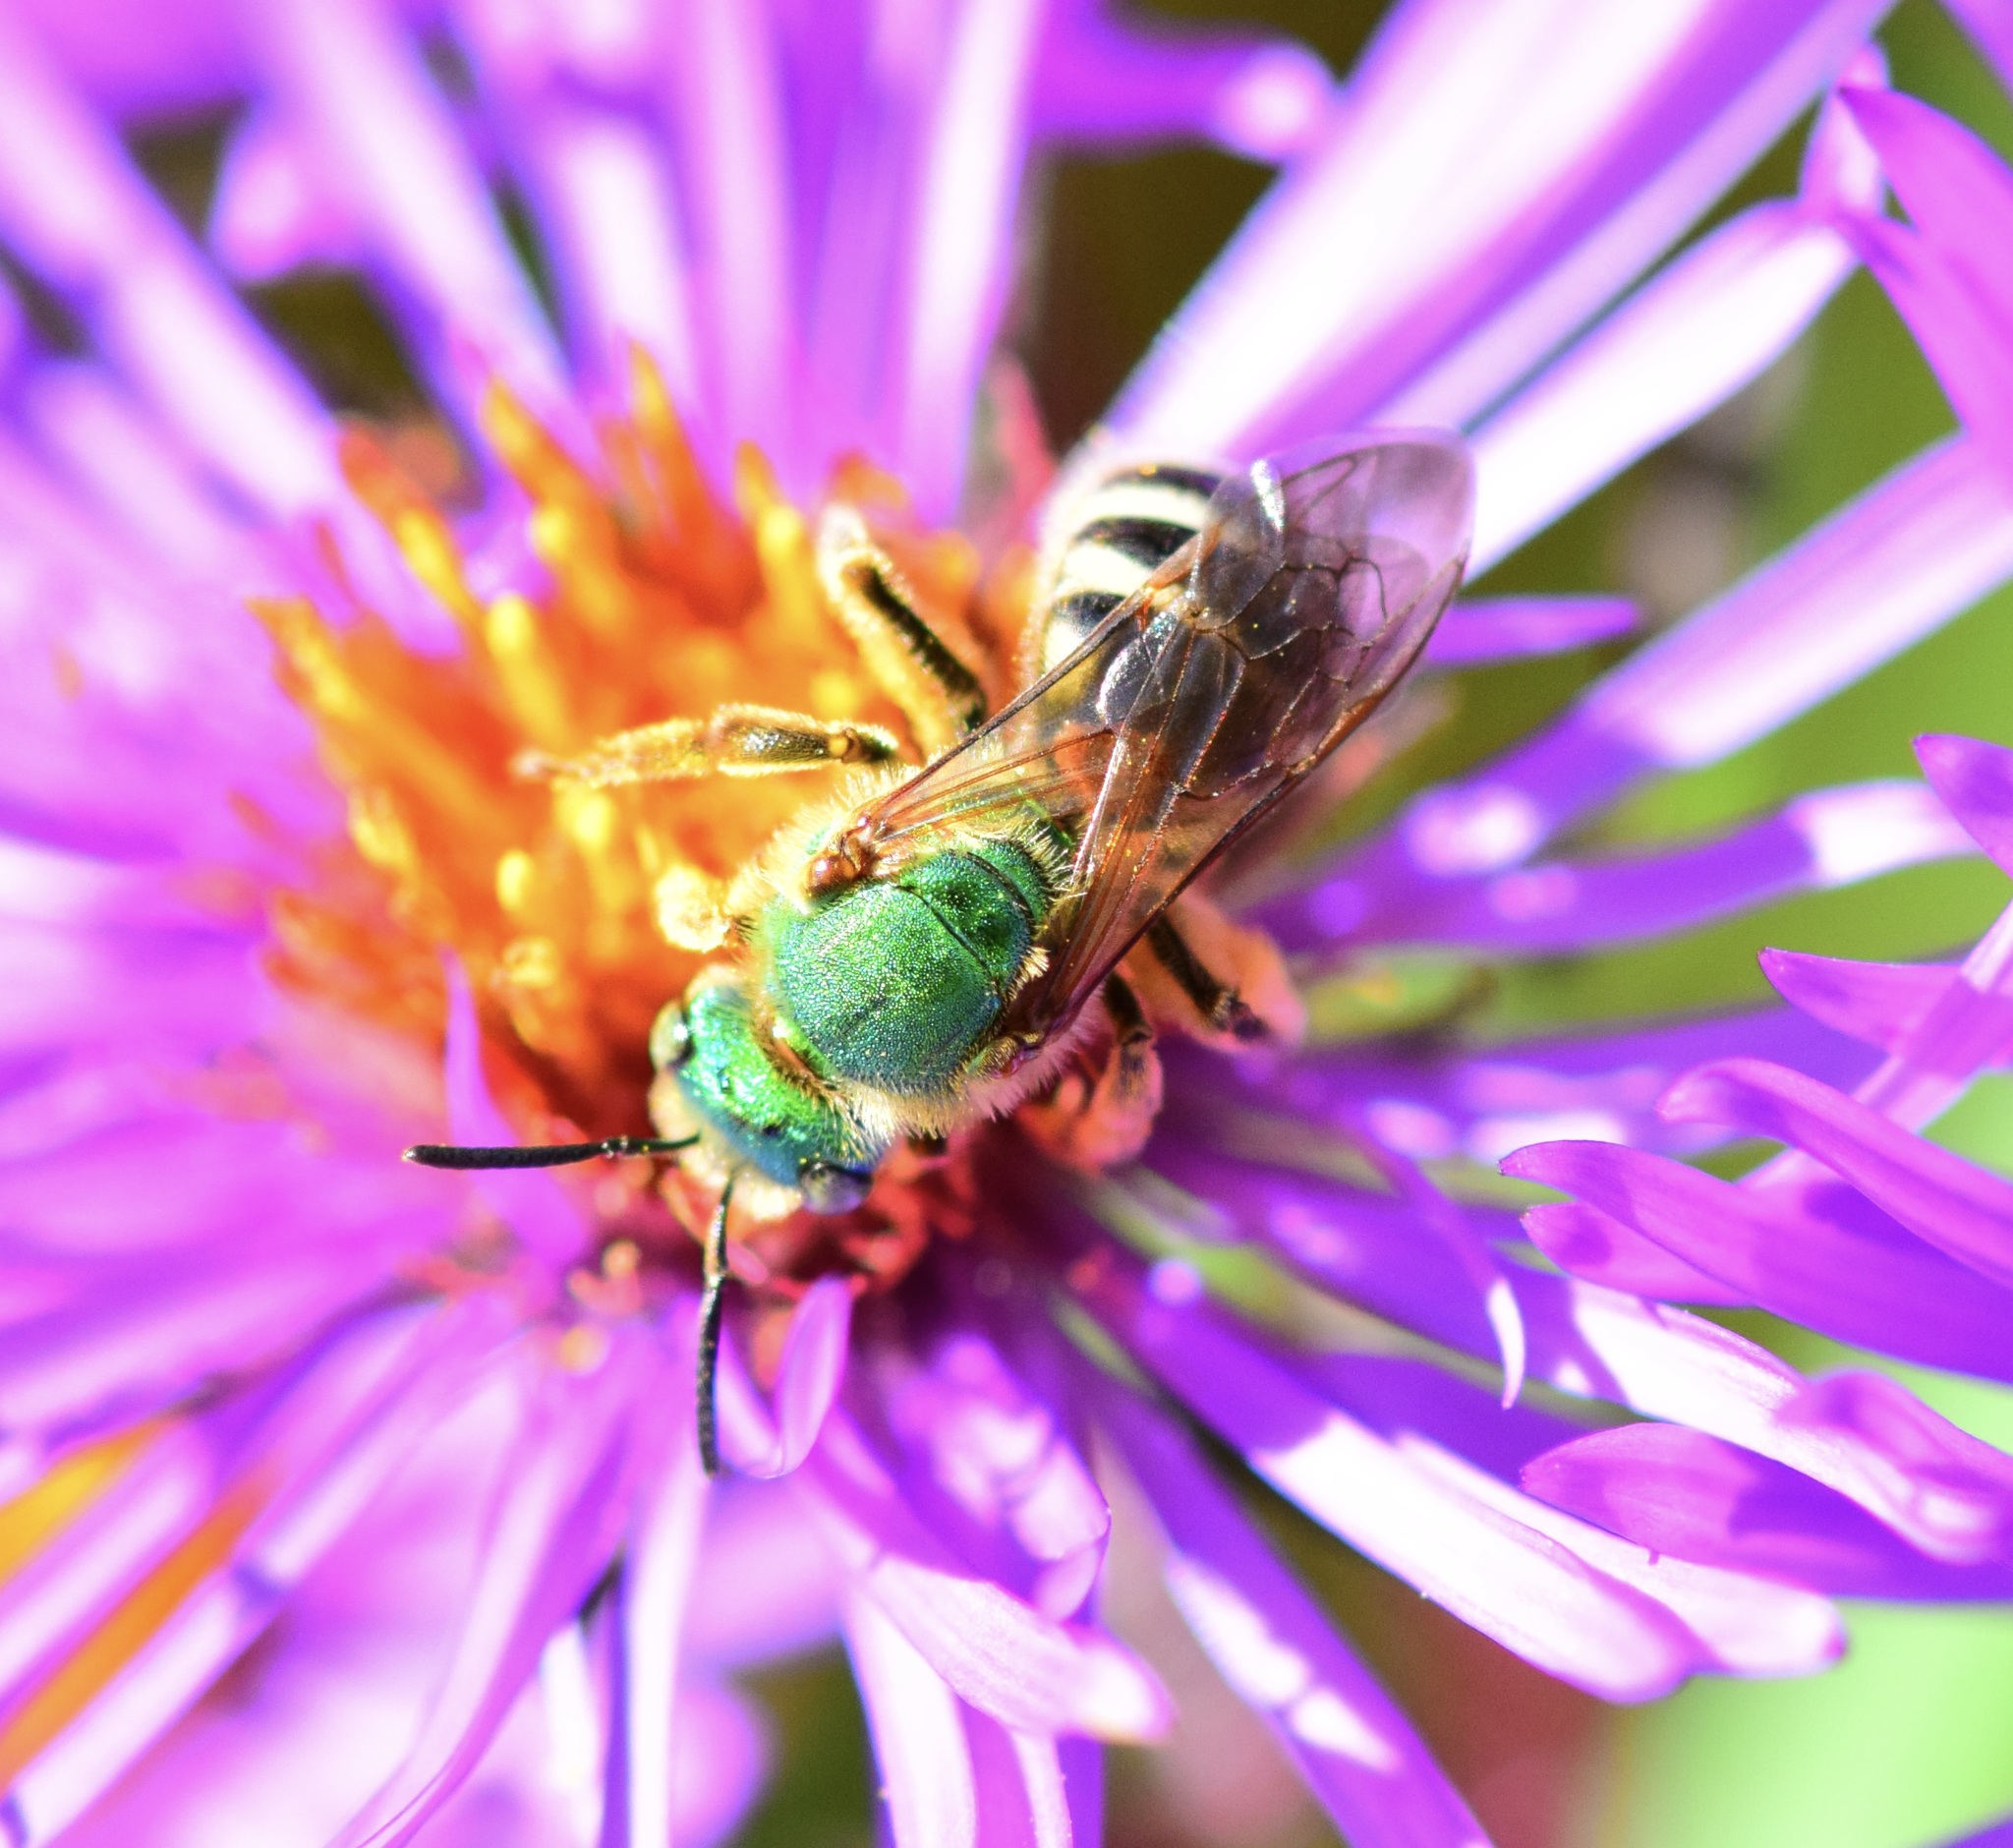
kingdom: Animalia
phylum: Arthropoda
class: Insecta
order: Hymenoptera
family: Halictidae
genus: Agapostemon
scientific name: Agapostemon virescens
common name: Bicolored striped sweat bee
